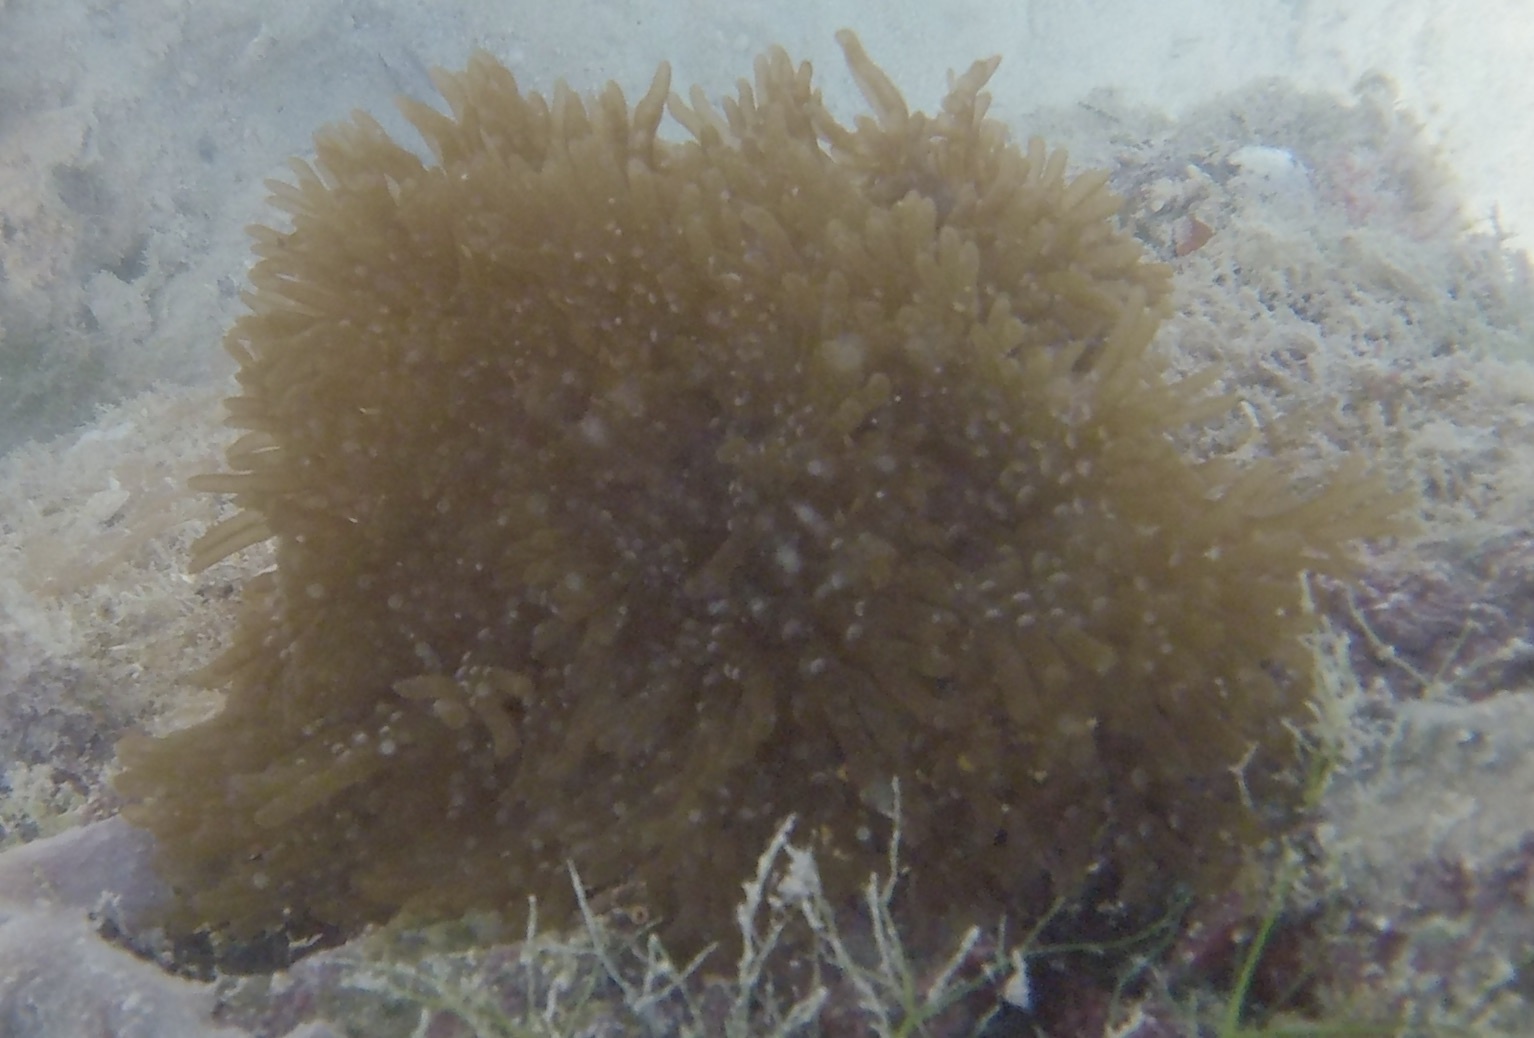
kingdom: Animalia
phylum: Cnidaria
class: Anthozoa
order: Actiniaria
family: Aliciidae
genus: Lebrunia
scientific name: Lebrunia neglecta
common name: Branching anemone
